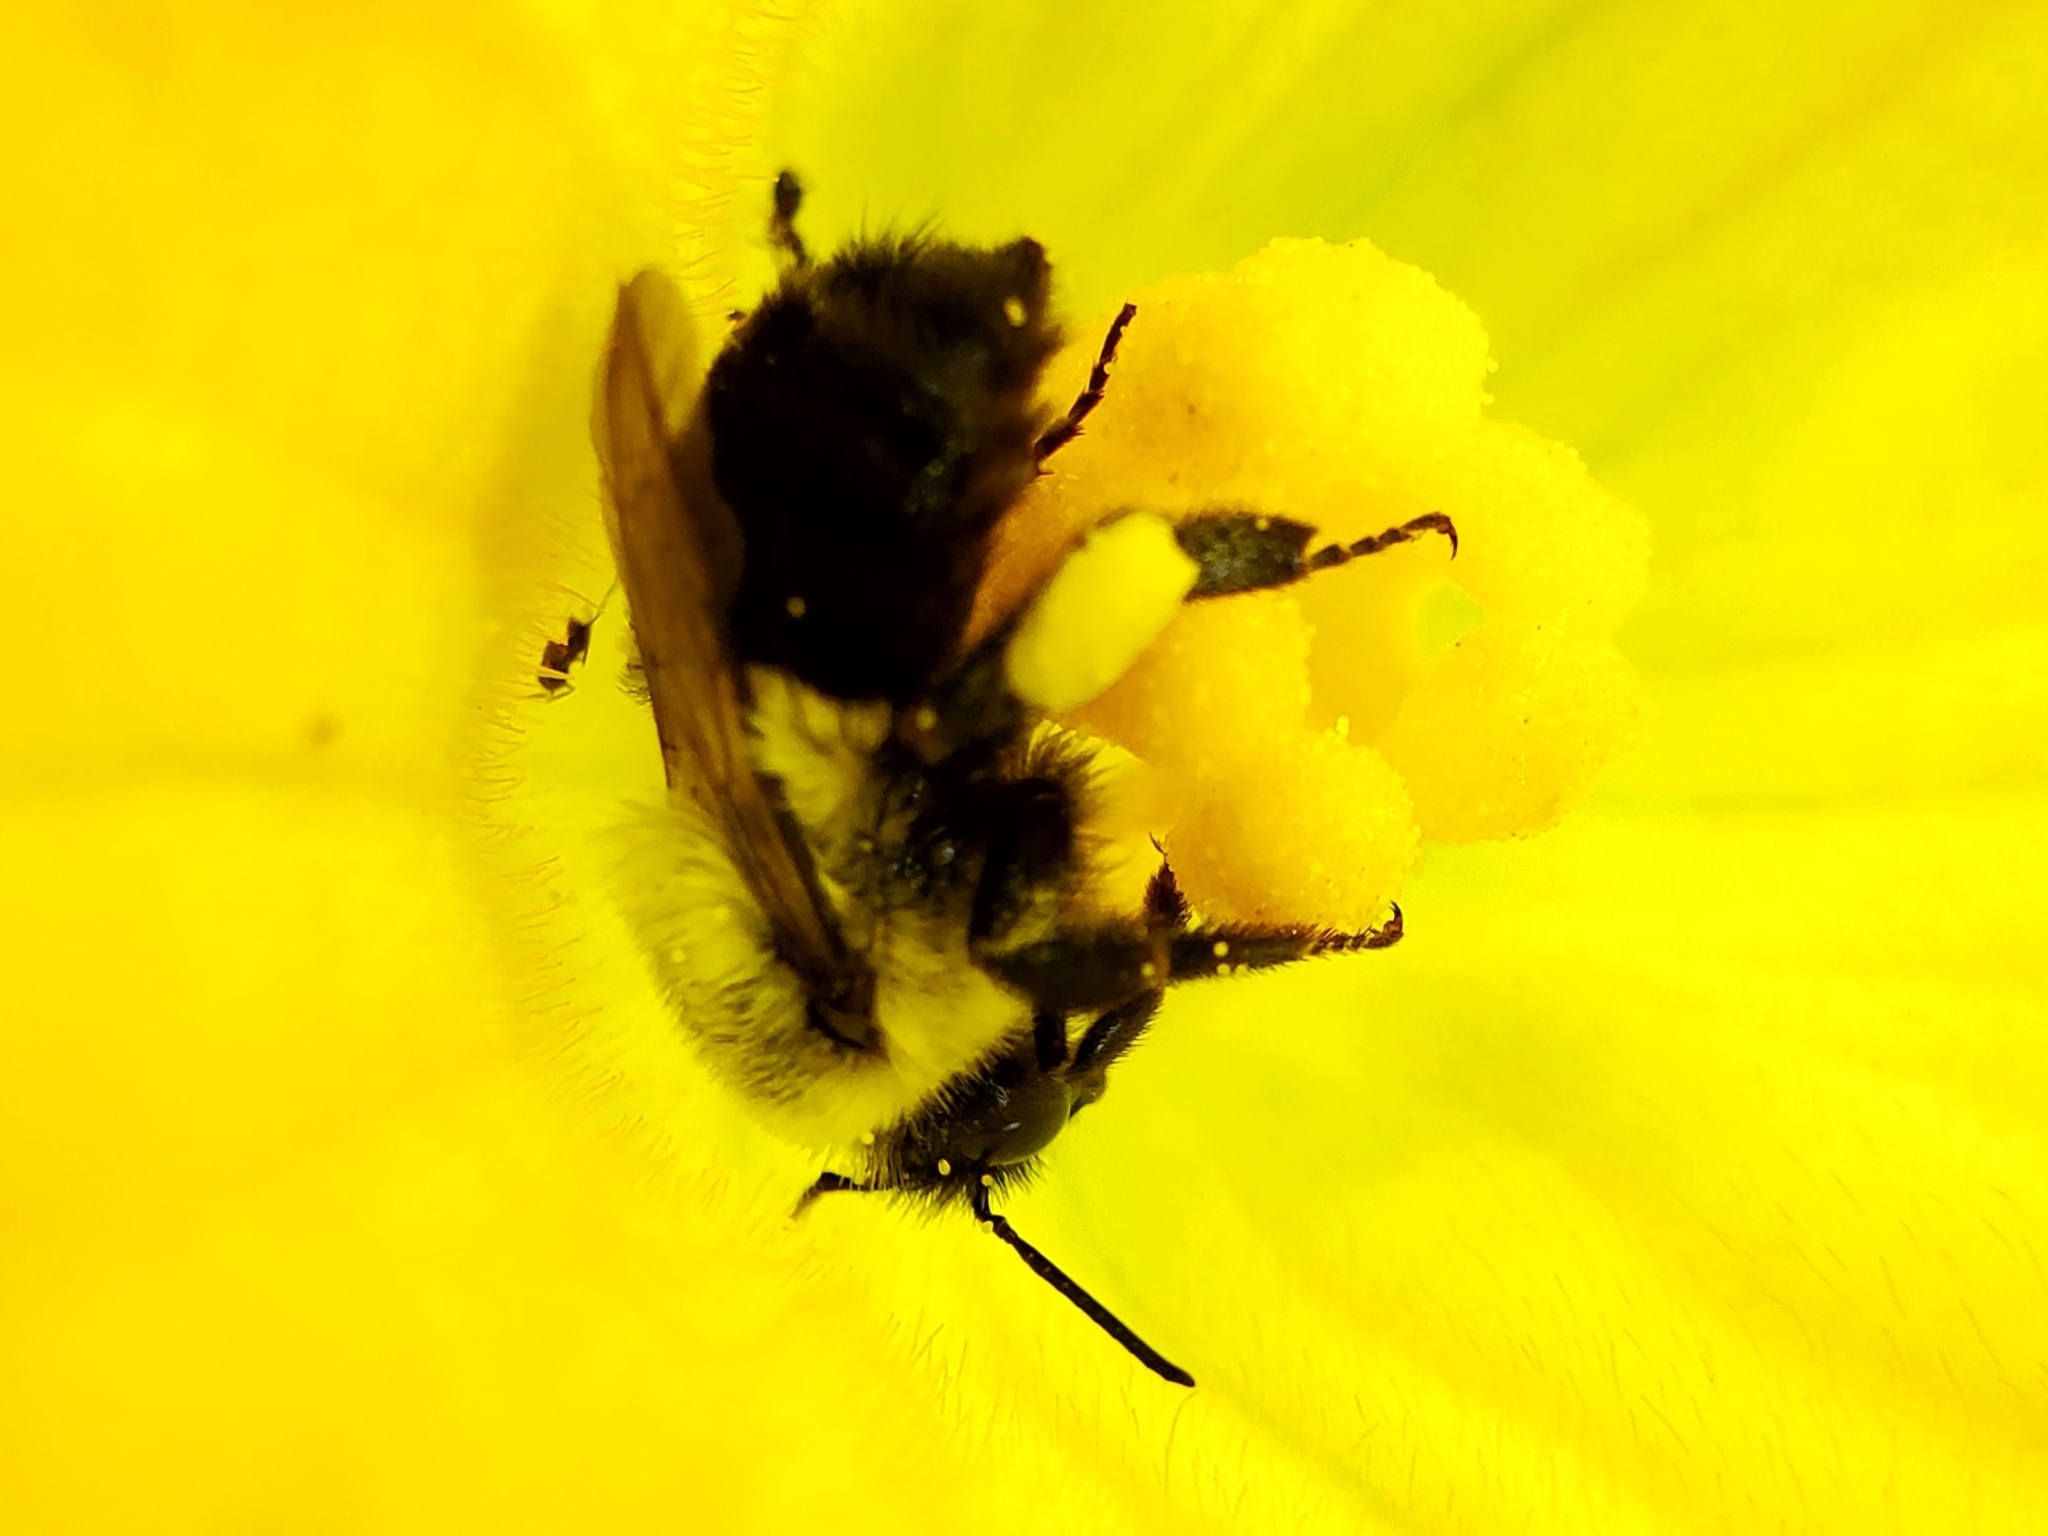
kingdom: Animalia
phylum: Arthropoda
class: Insecta
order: Hymenoptera
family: Apidae
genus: Bombus
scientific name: Bombus impatiens
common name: Common eastern bumble bee
